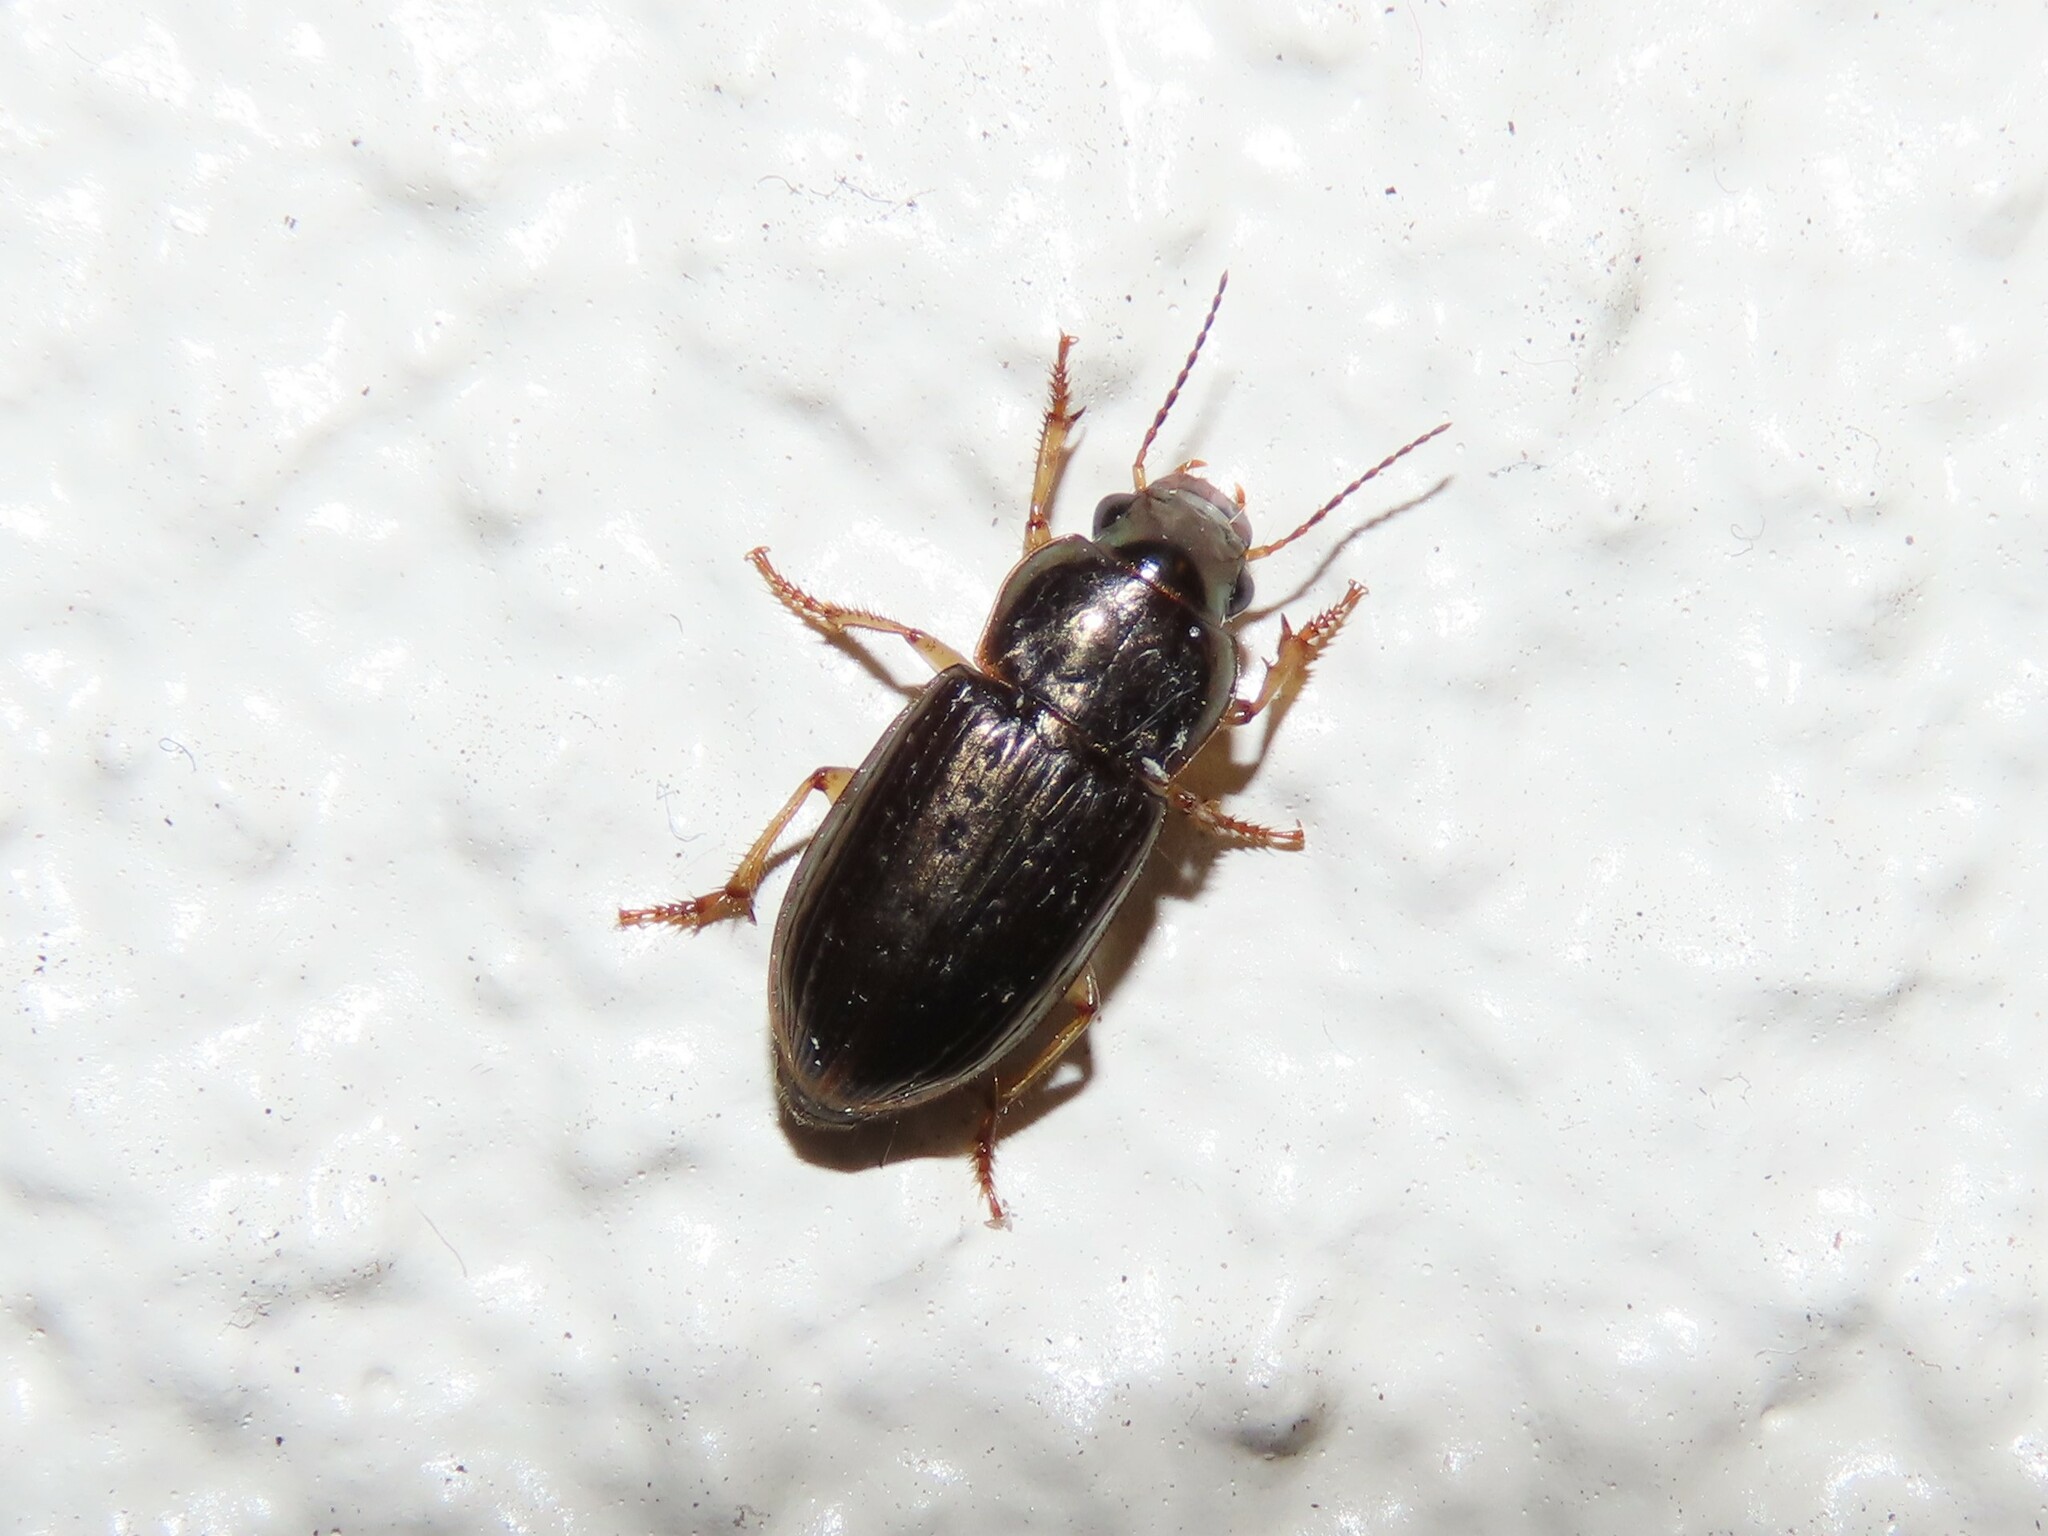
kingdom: Animalia
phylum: Arthropoda
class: Insecta
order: Coleoptera
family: Carabidae
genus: Selenophorus
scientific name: Selenophorus palliatus
